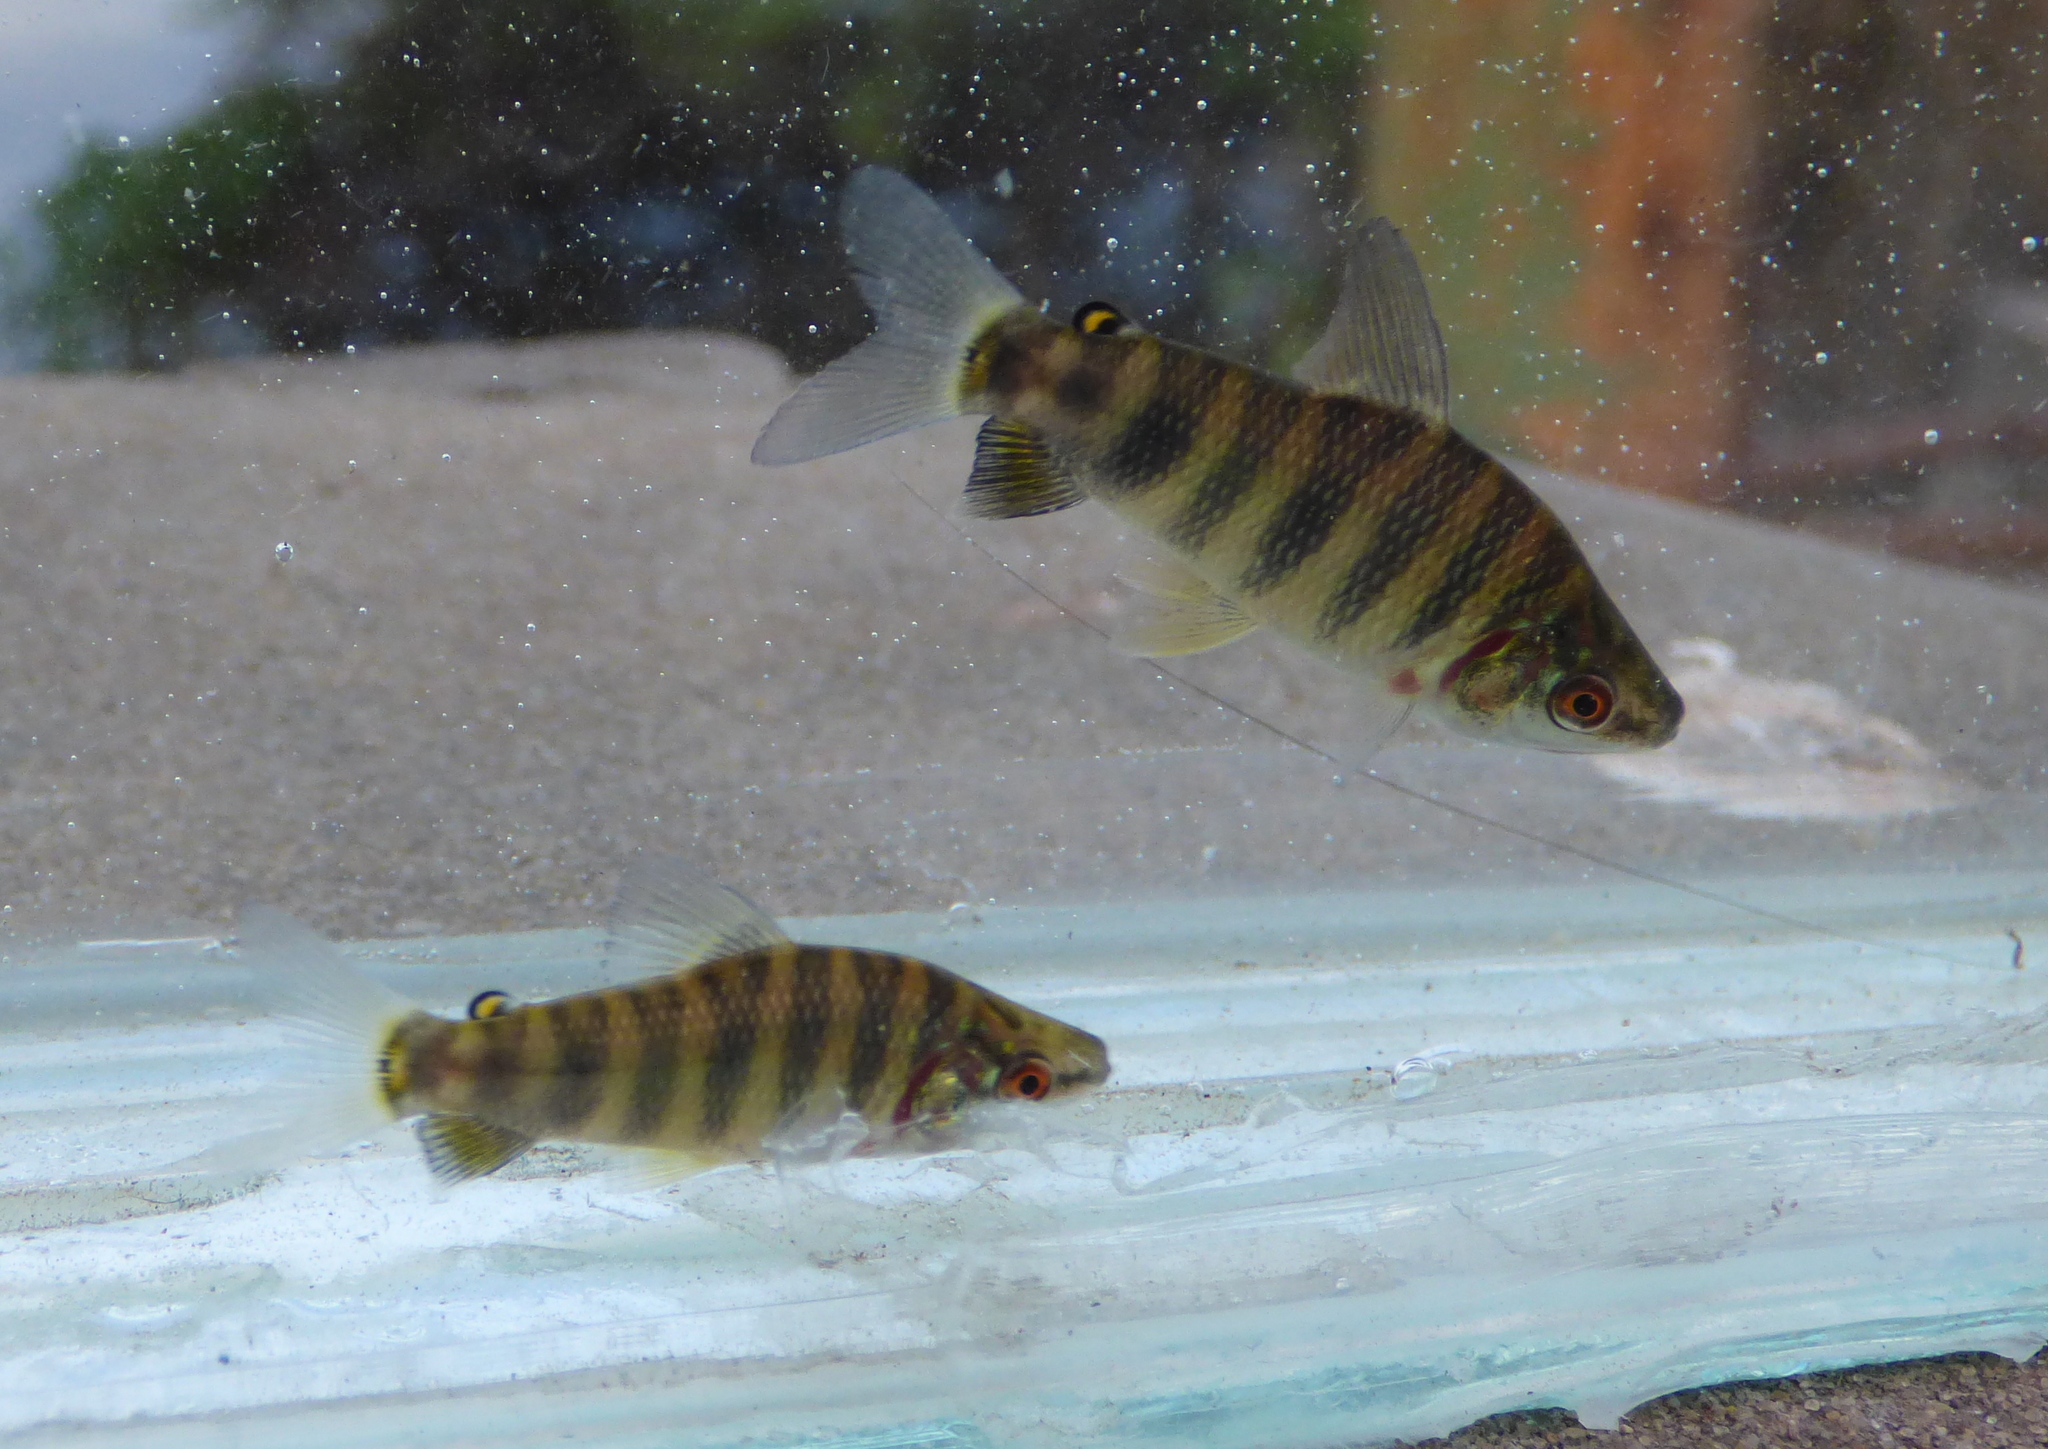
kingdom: Animalia
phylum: Chordata
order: Characiformes
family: Anostomidae
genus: Leporinus
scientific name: Leporinus obtusidens
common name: Characin
